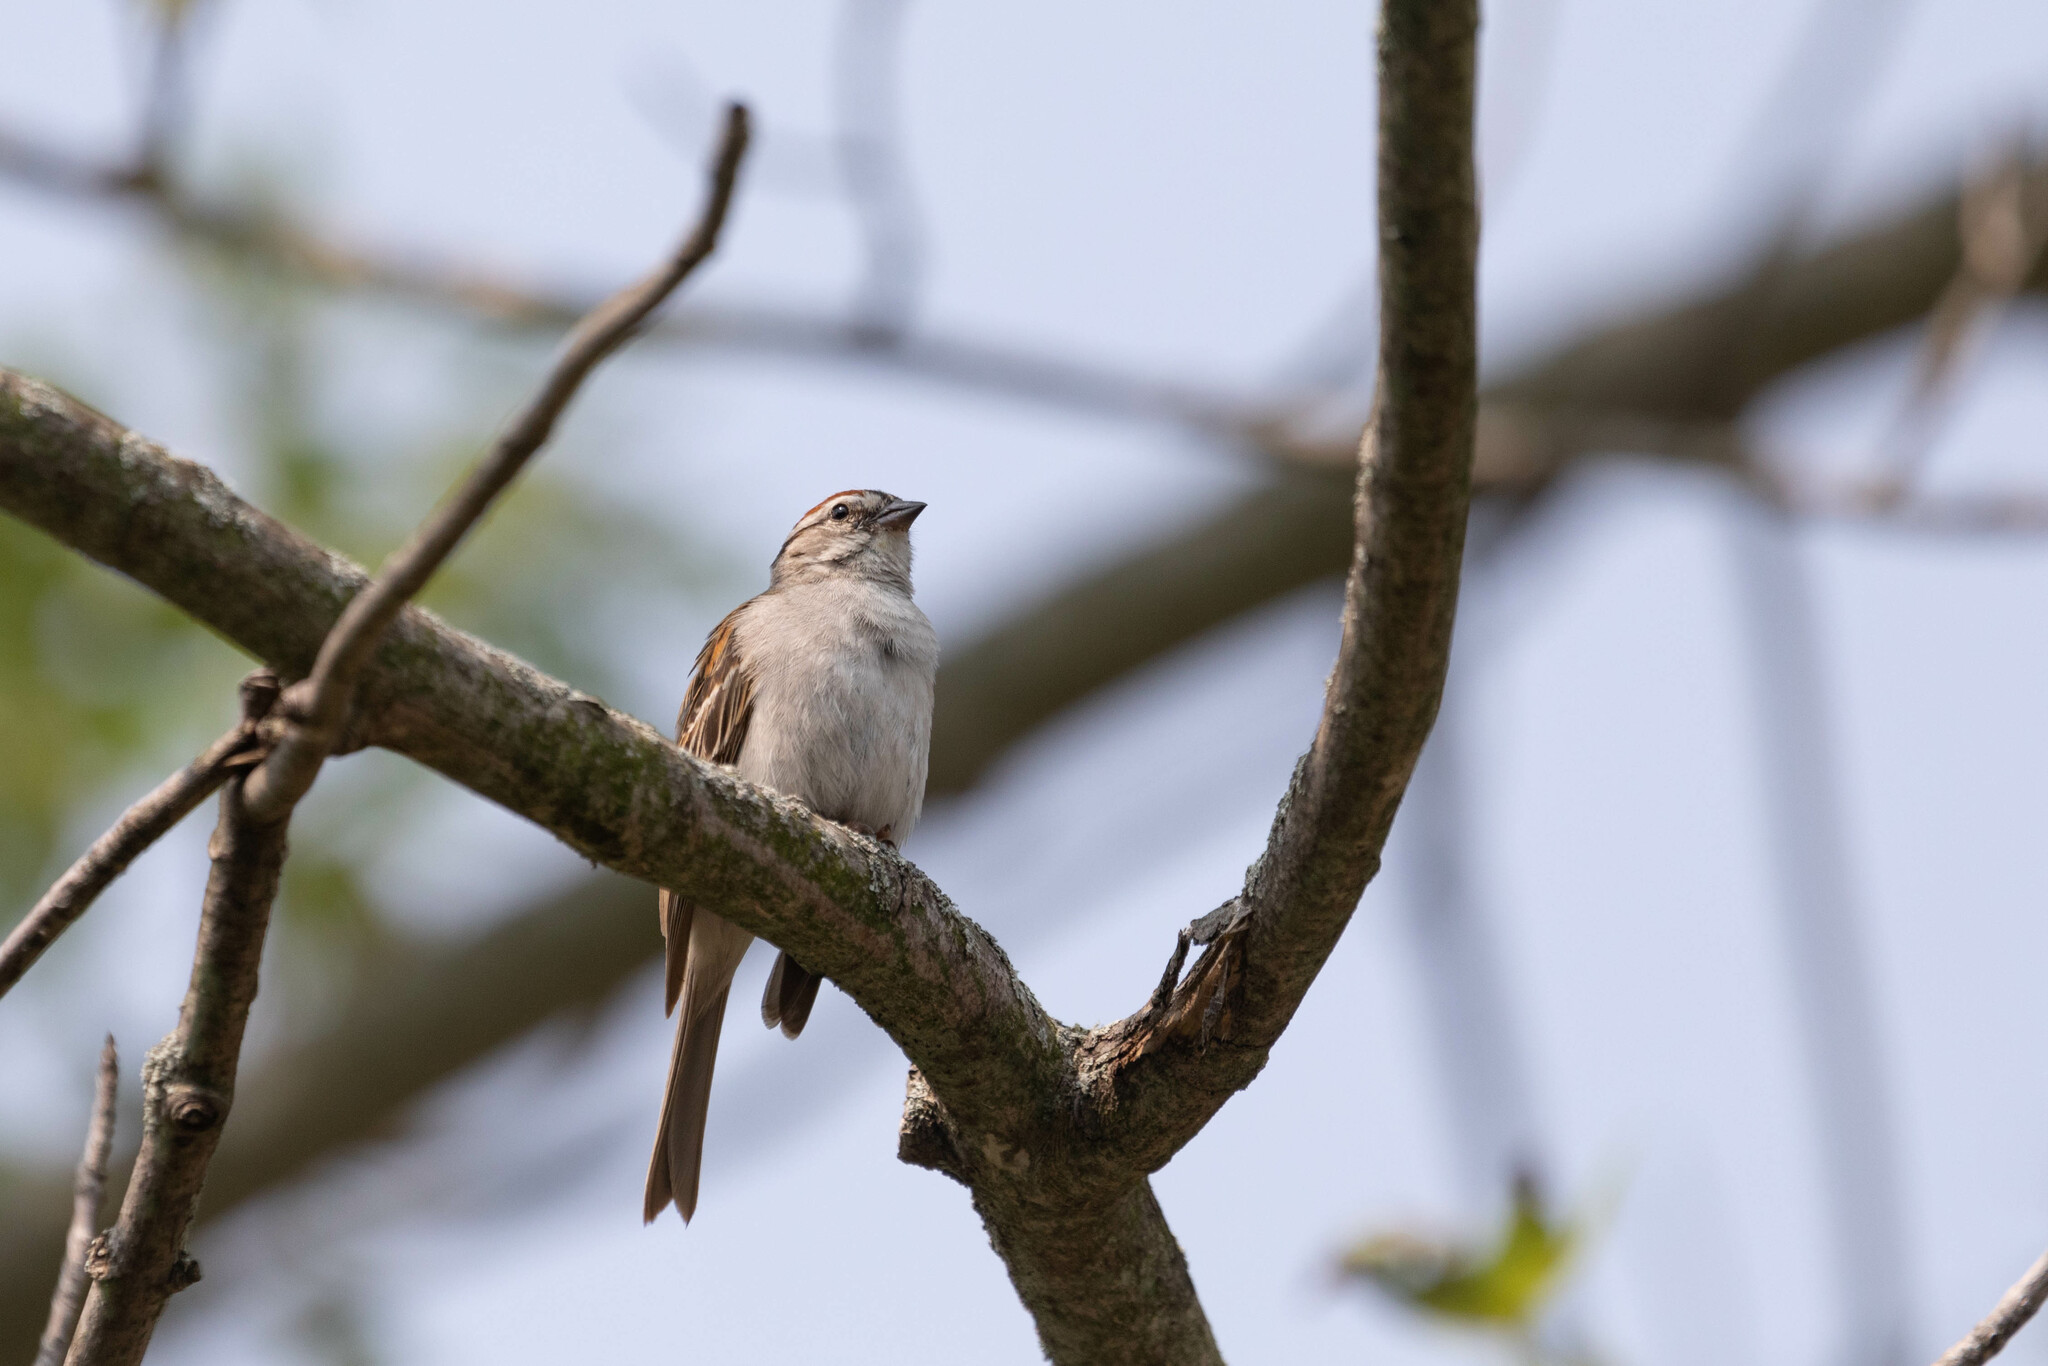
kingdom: Animalia
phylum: Chordata
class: Aves
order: Passeriformes
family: Passerellidae
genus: Spizella
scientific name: Spizella passerina
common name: Chipping sparrow
